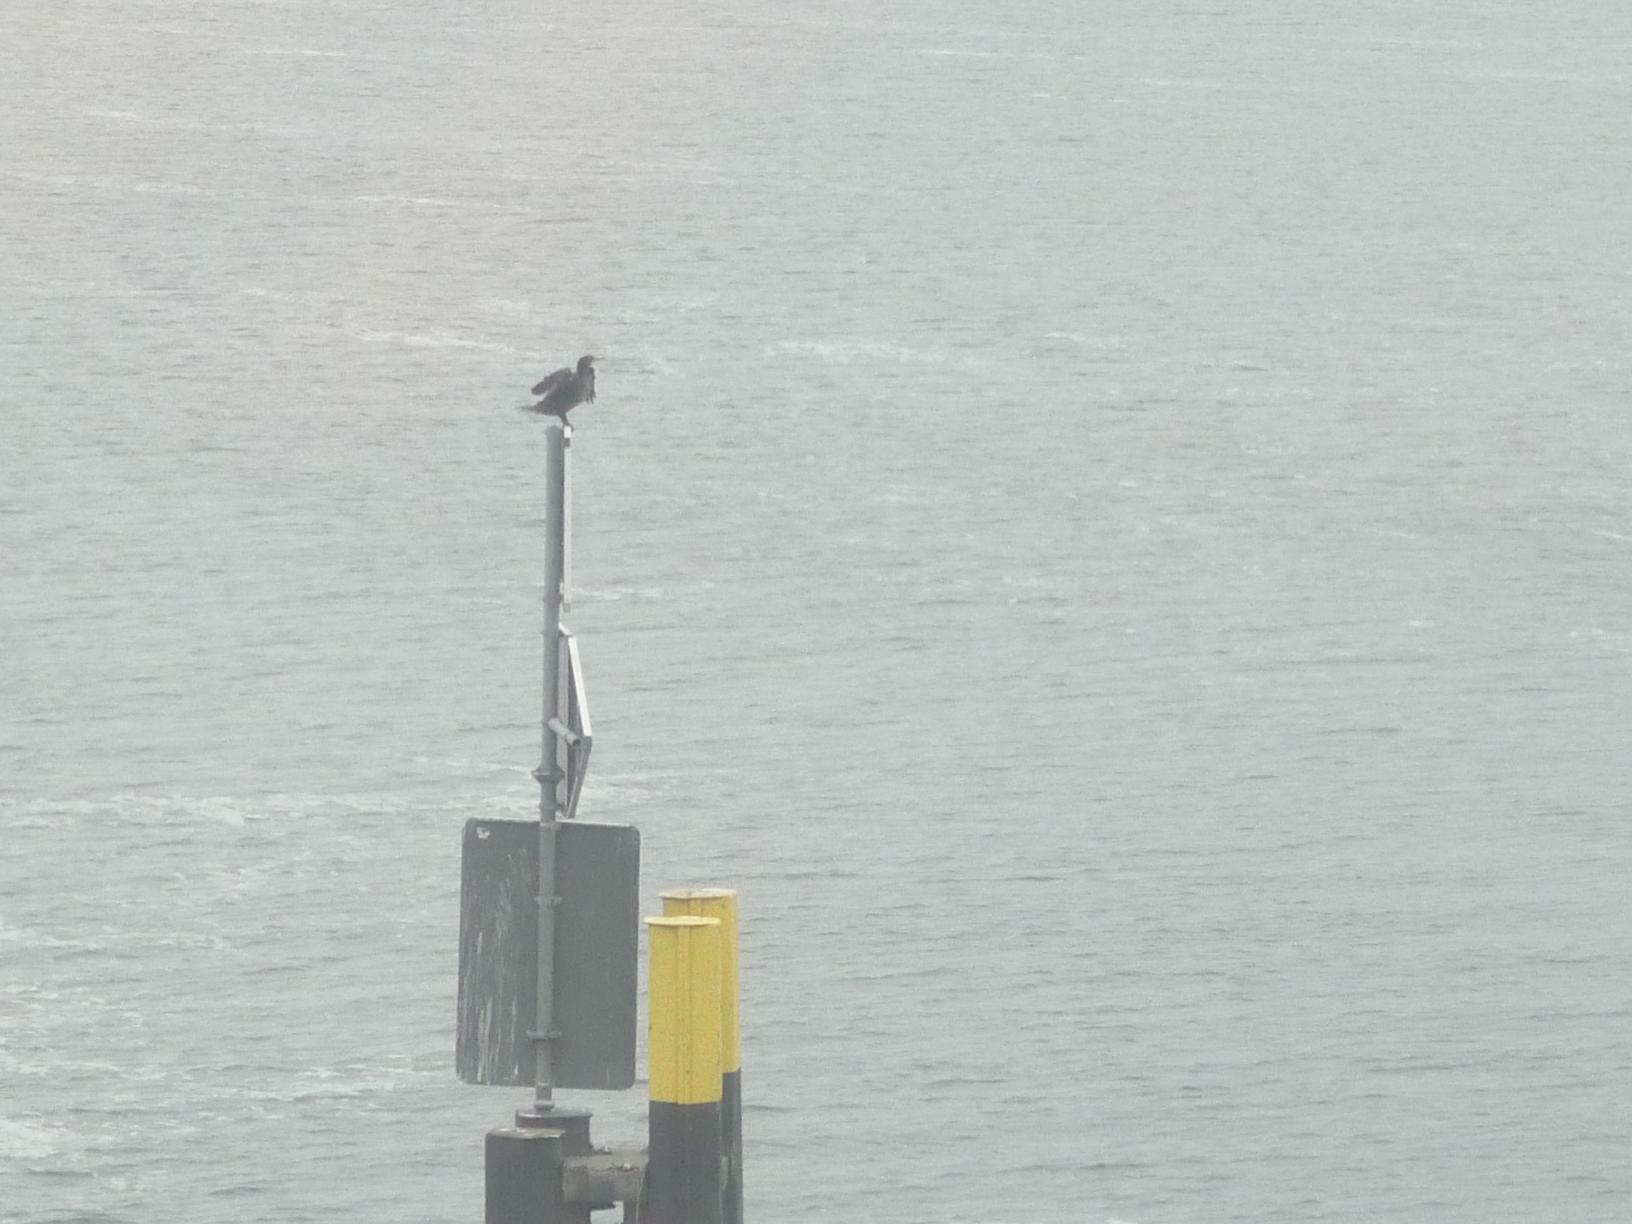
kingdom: Animalia
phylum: Chordata
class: Aves
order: Suliformes
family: Phalacrocoracidae
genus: Phalacrocorax
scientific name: Phalacrocorax carbo
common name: Great cormorant
